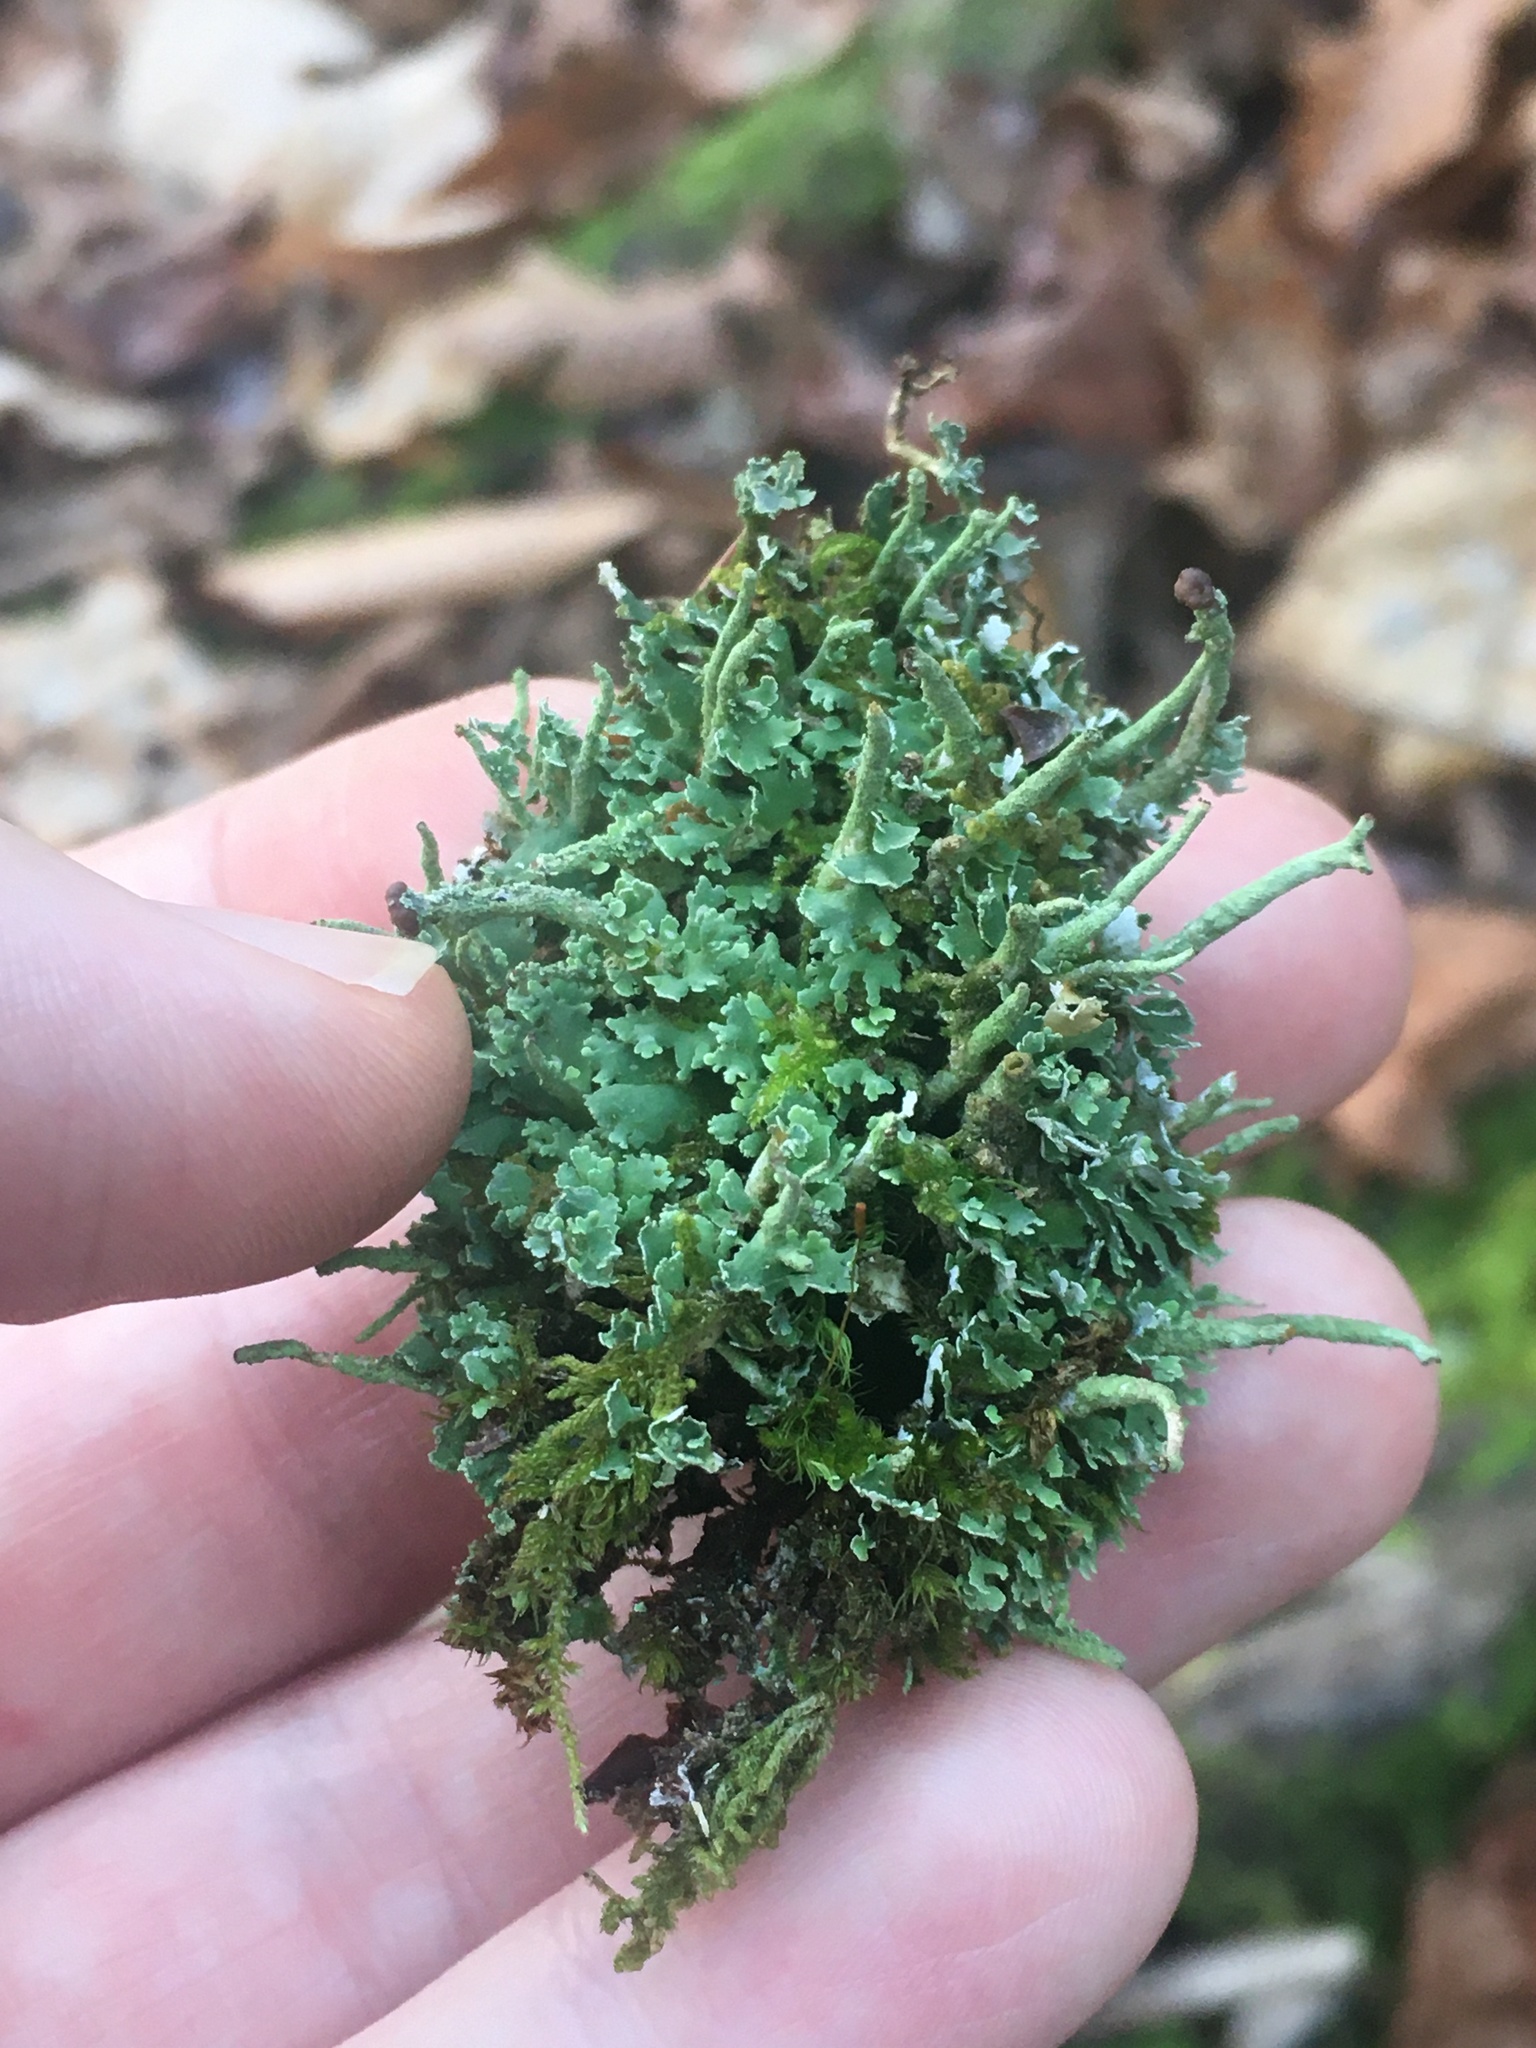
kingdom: Fungi
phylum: Ascomycota
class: Lecanoromycetes
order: Lecanorales
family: Cladoniaceae
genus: Cladonia
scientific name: Cladonia ochrochlora
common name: Smooth-footed powderhorn
